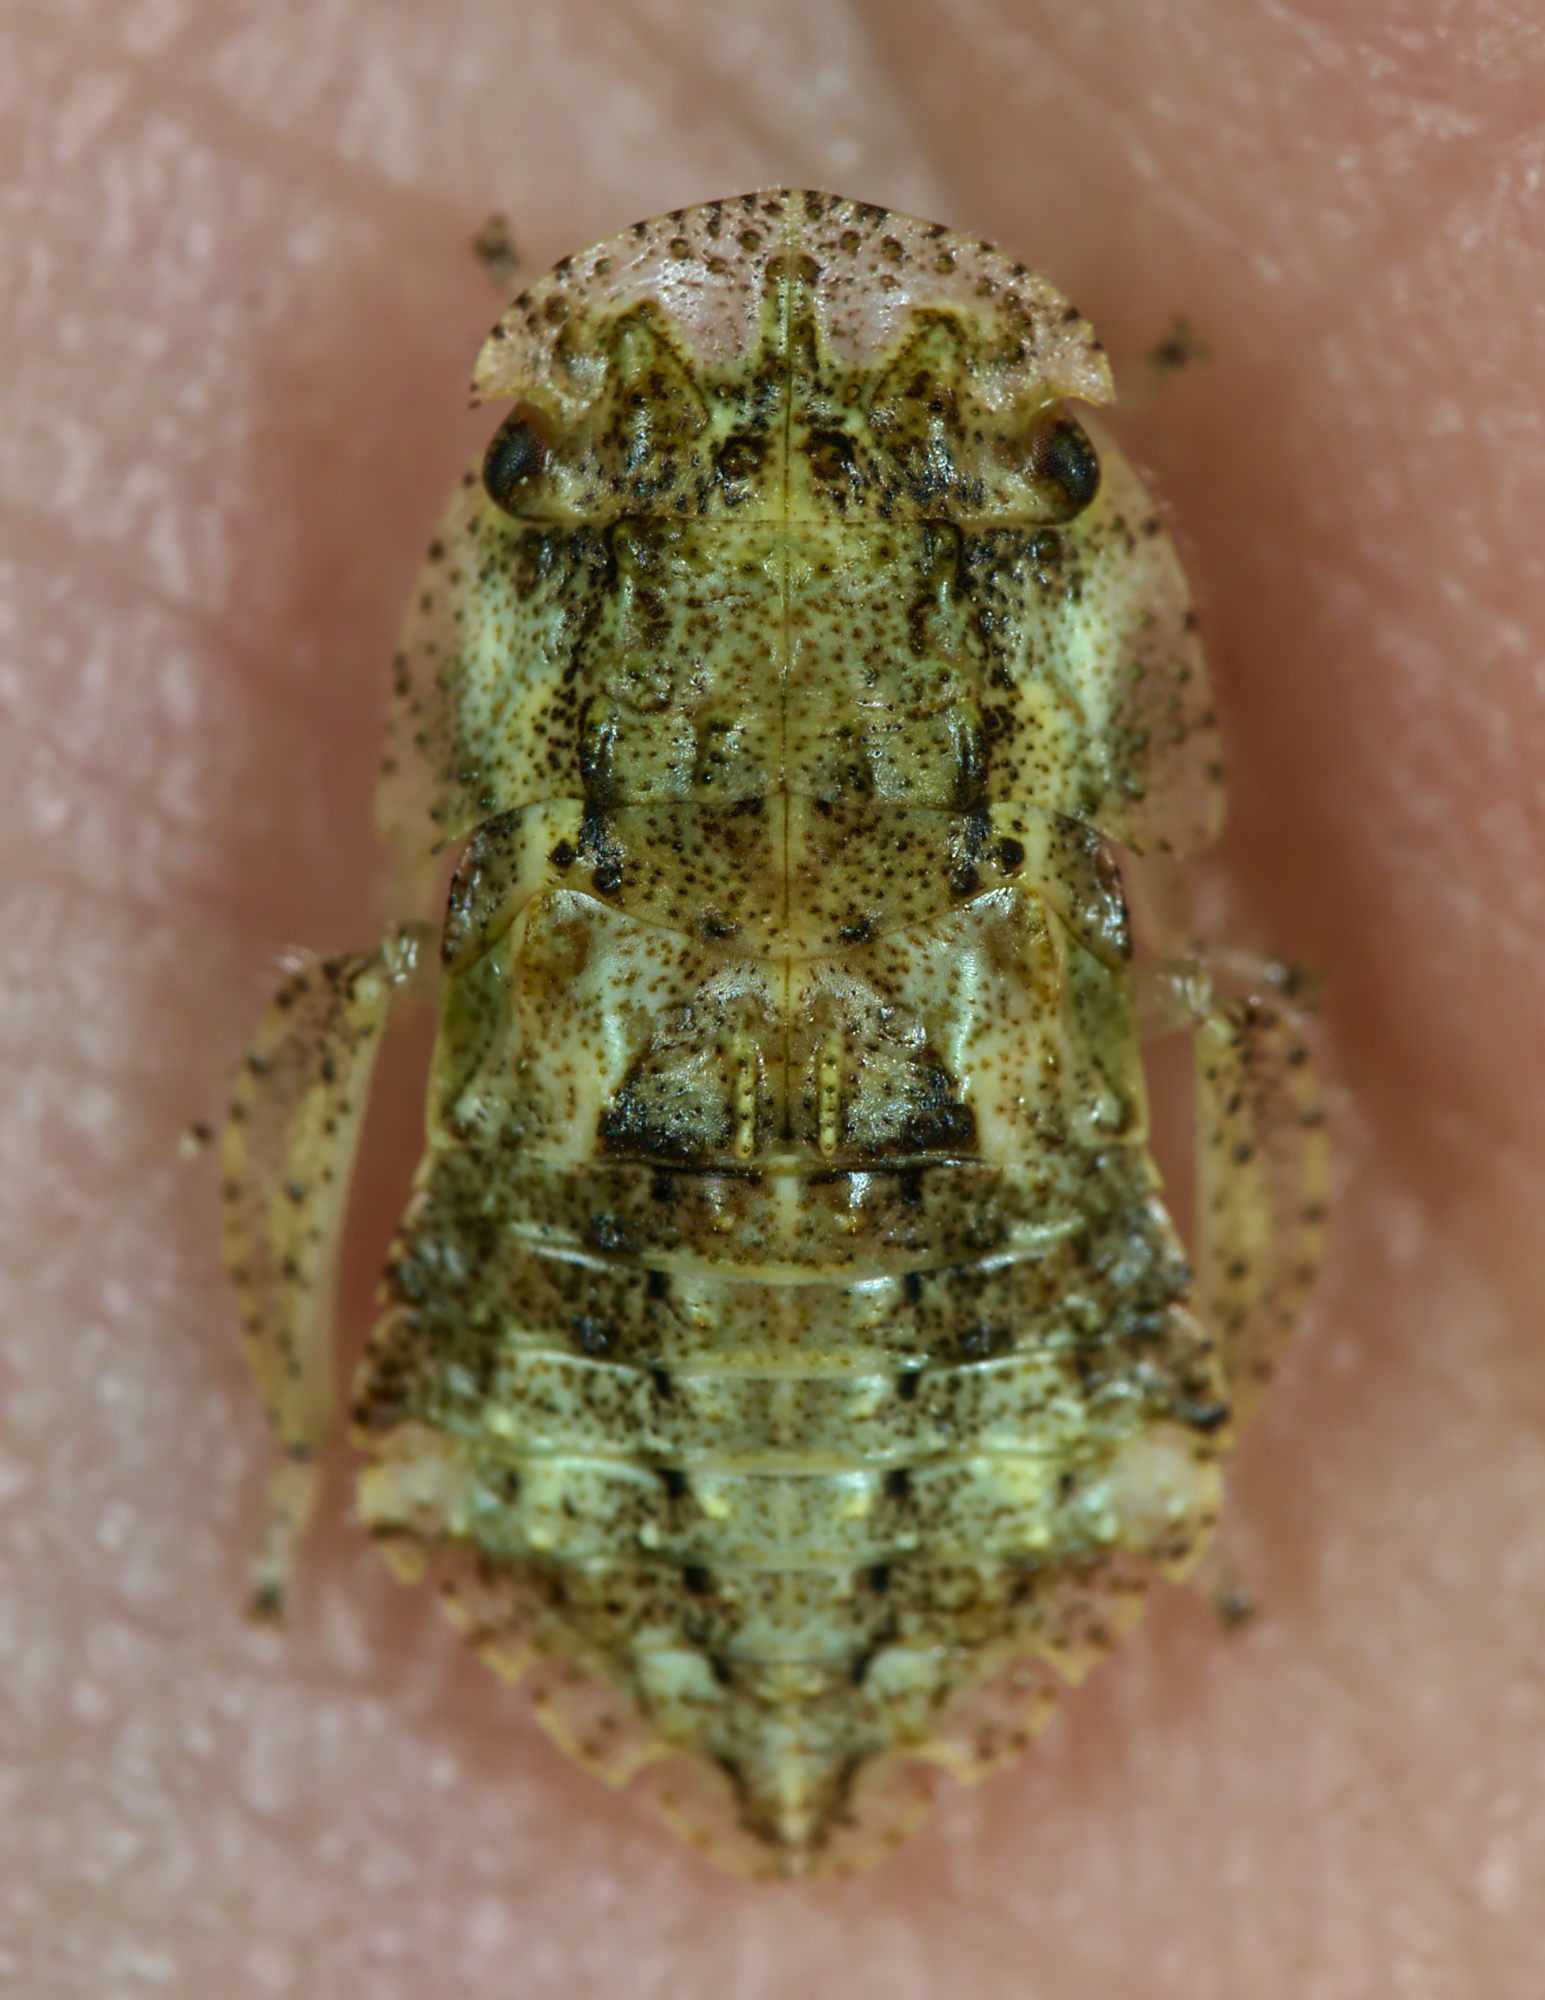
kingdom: Animalia
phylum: Arthropoda
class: Insecta
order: Hemiptera
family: Cicadellidae
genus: Ledra
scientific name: Ledra aurita
